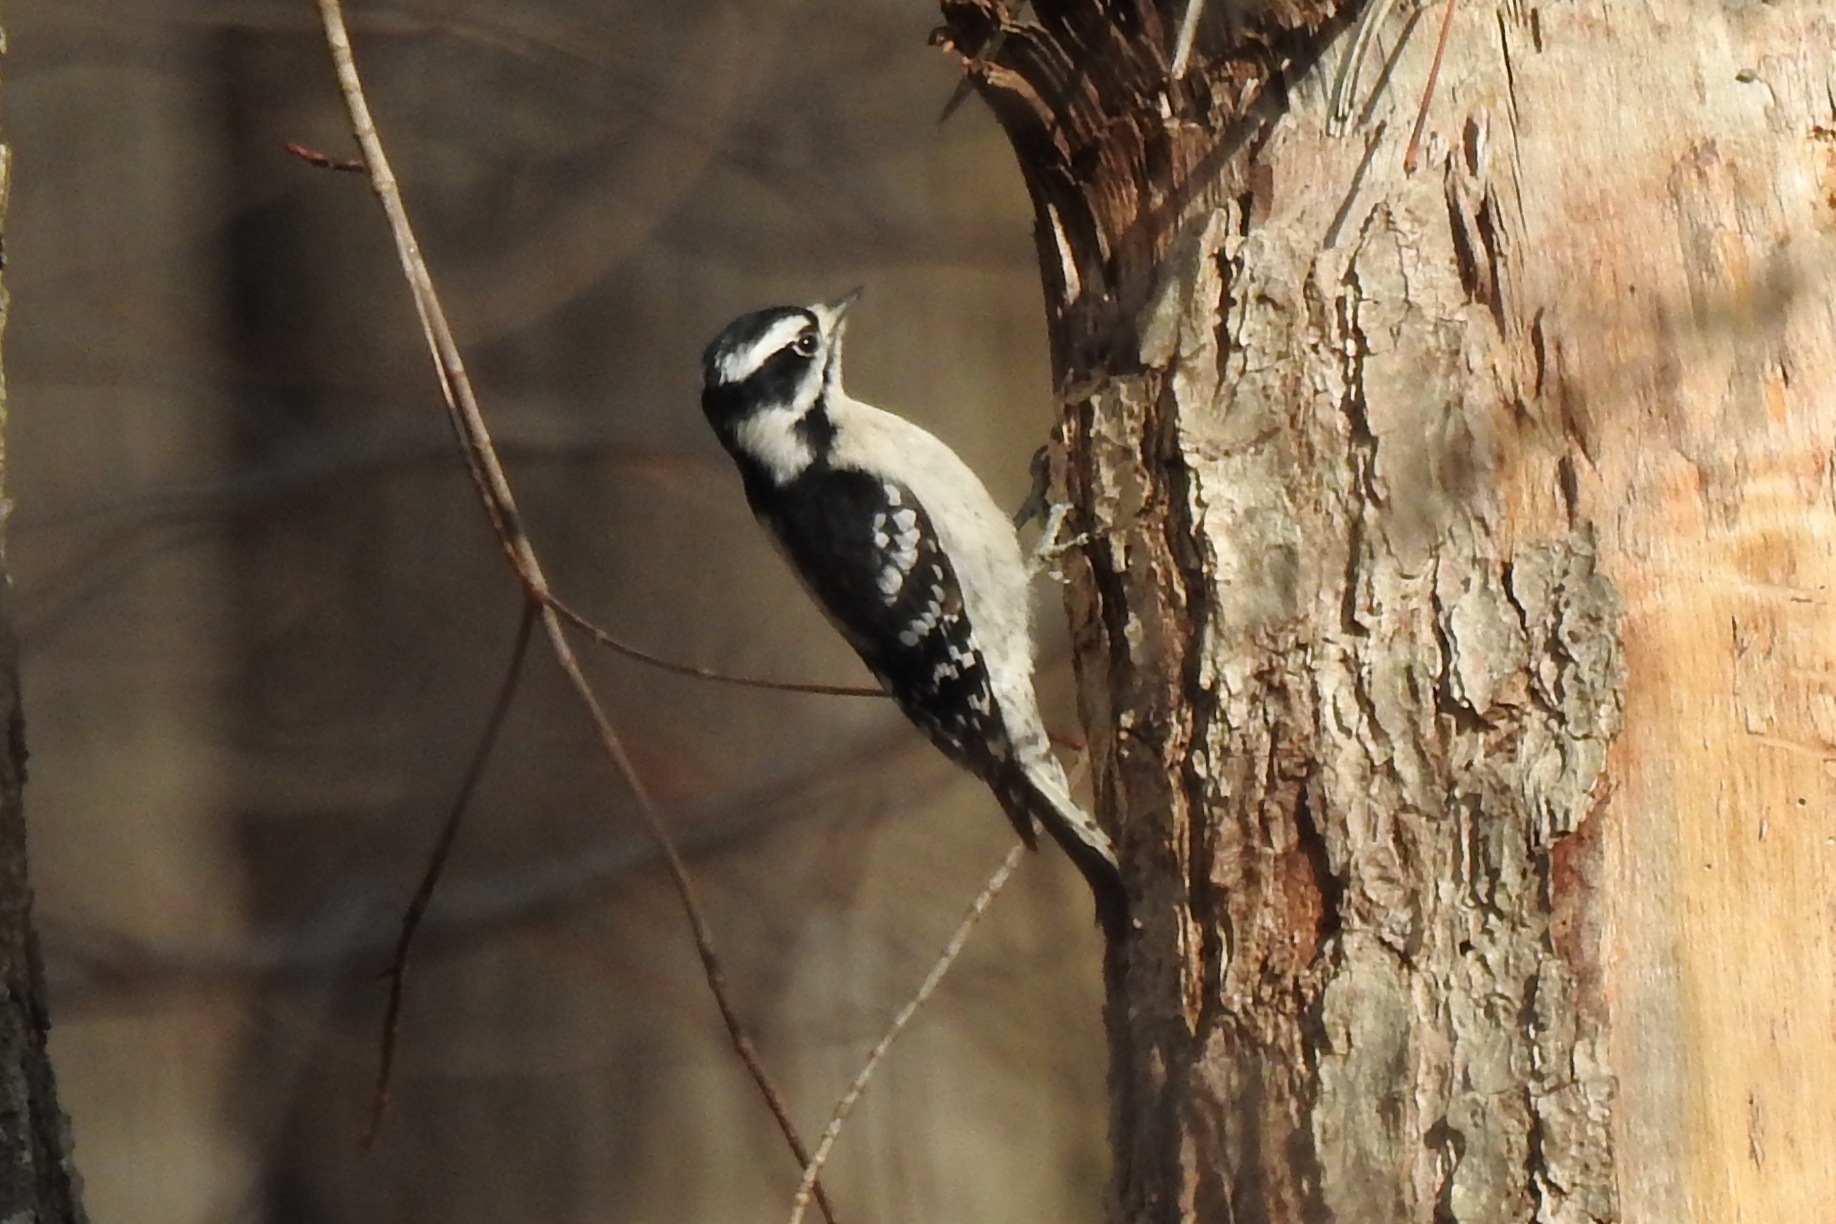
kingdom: Animalia
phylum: Chordata
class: Aves
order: Piciformes
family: Picidae
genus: Dryobates
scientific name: Dryobates pubescens
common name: Downy woodpecker
